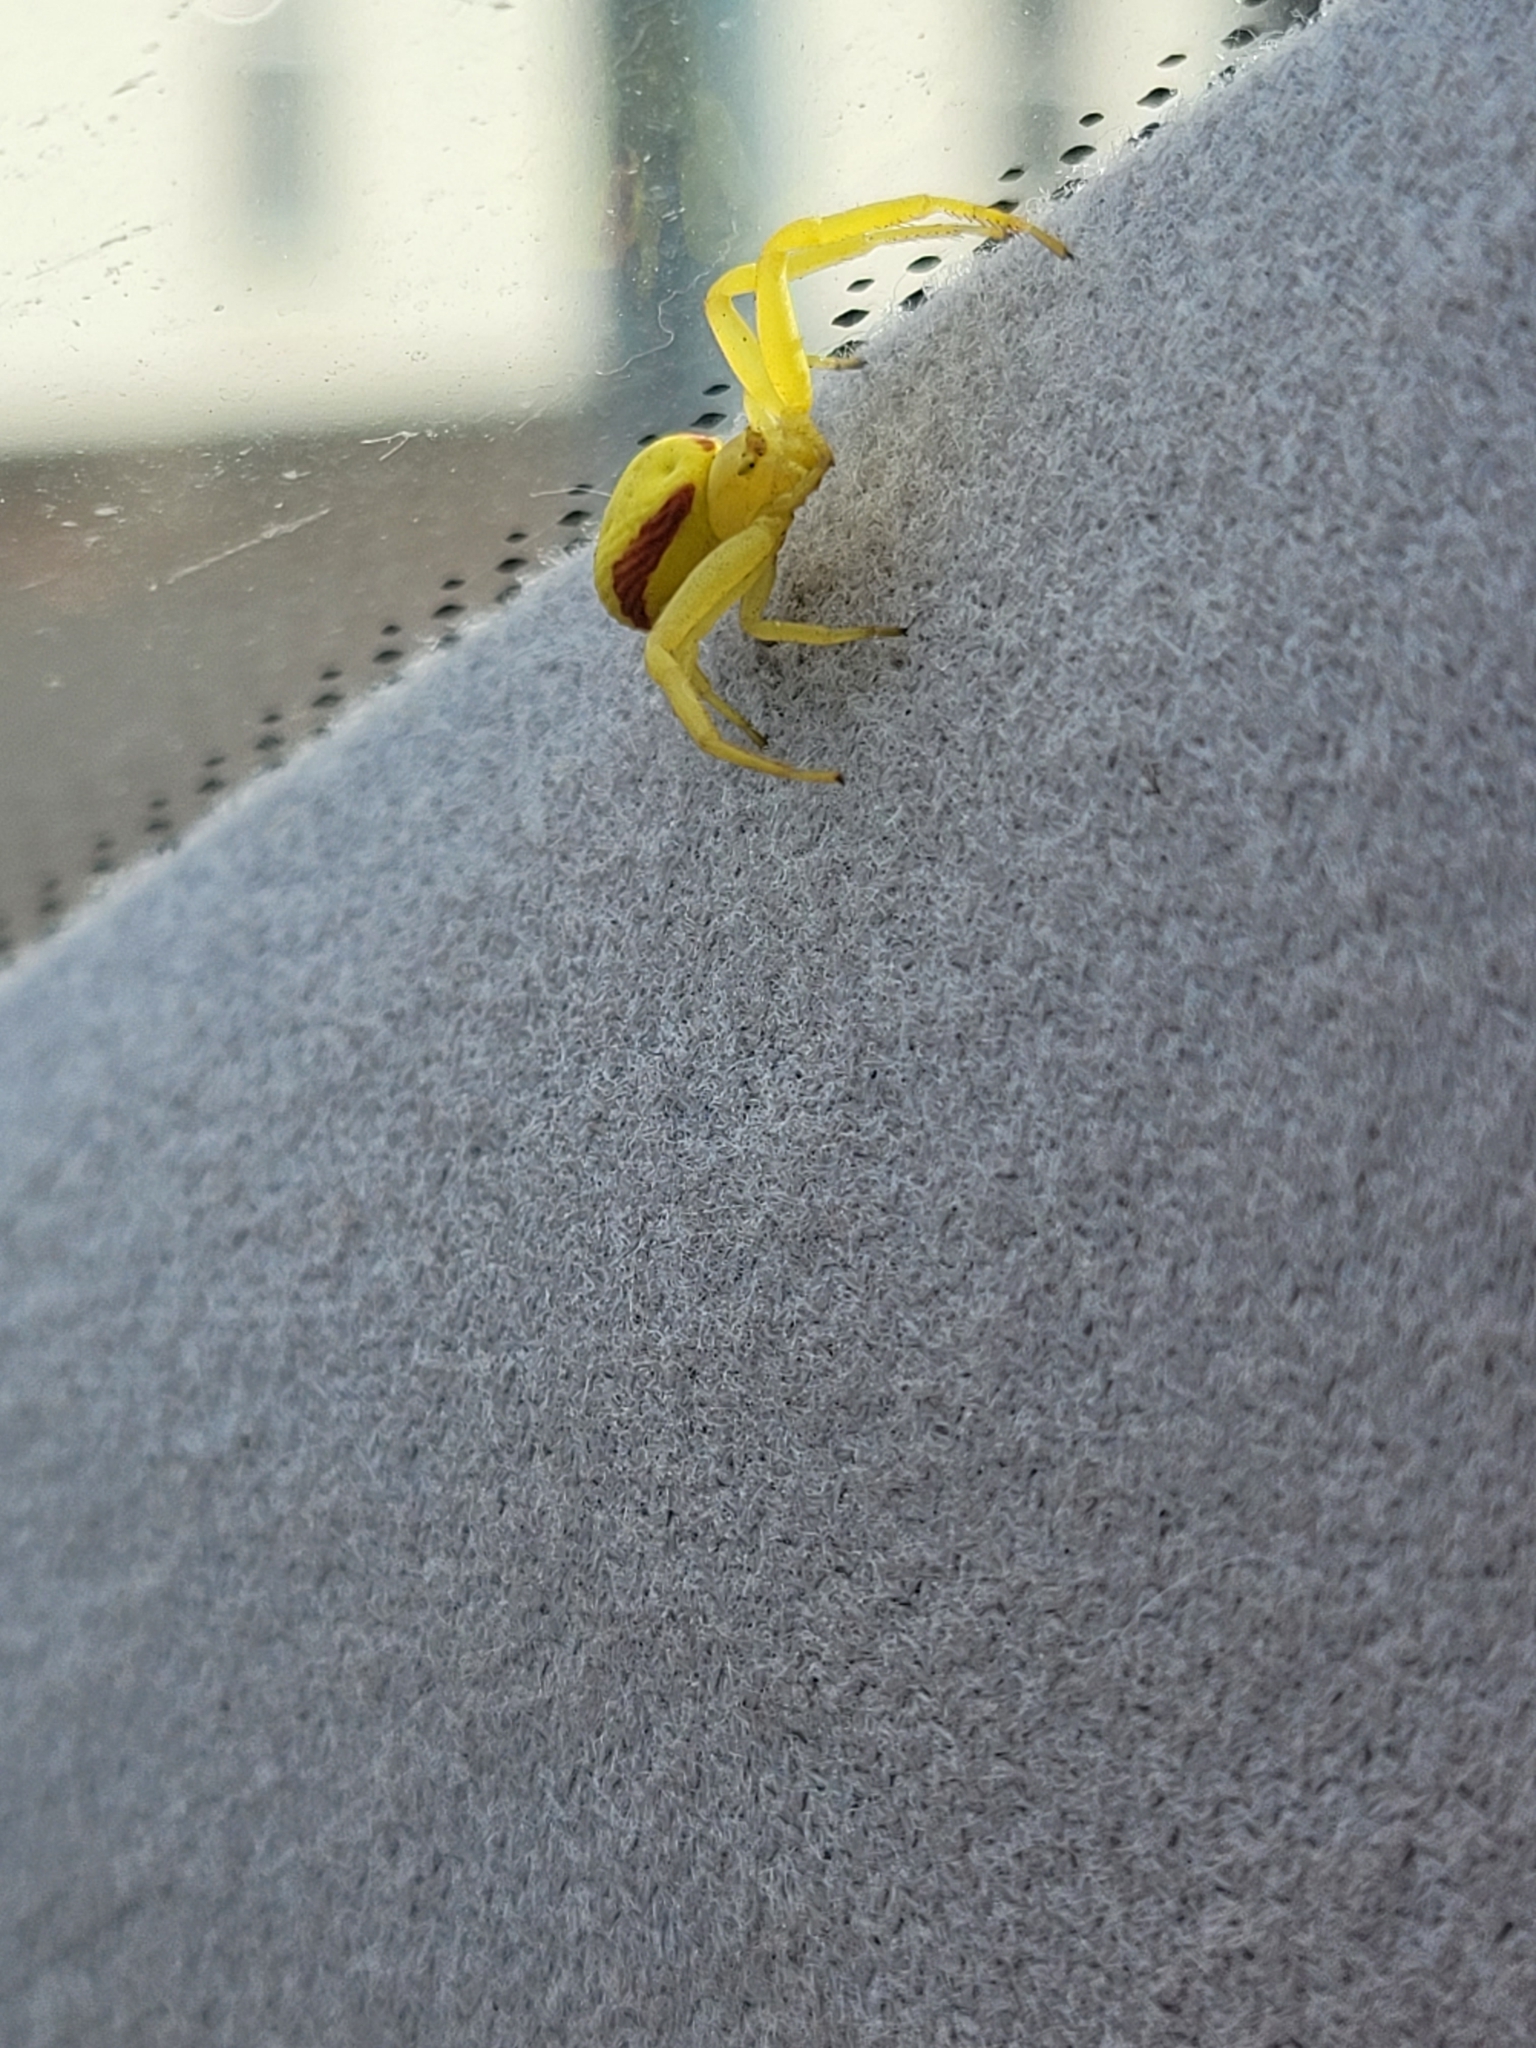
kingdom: Animalia
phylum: Arthropoda
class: Arachnida
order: Araneae
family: Thomisidae
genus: Misumena
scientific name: Misumena vatia
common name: Goldenrod crab spider
